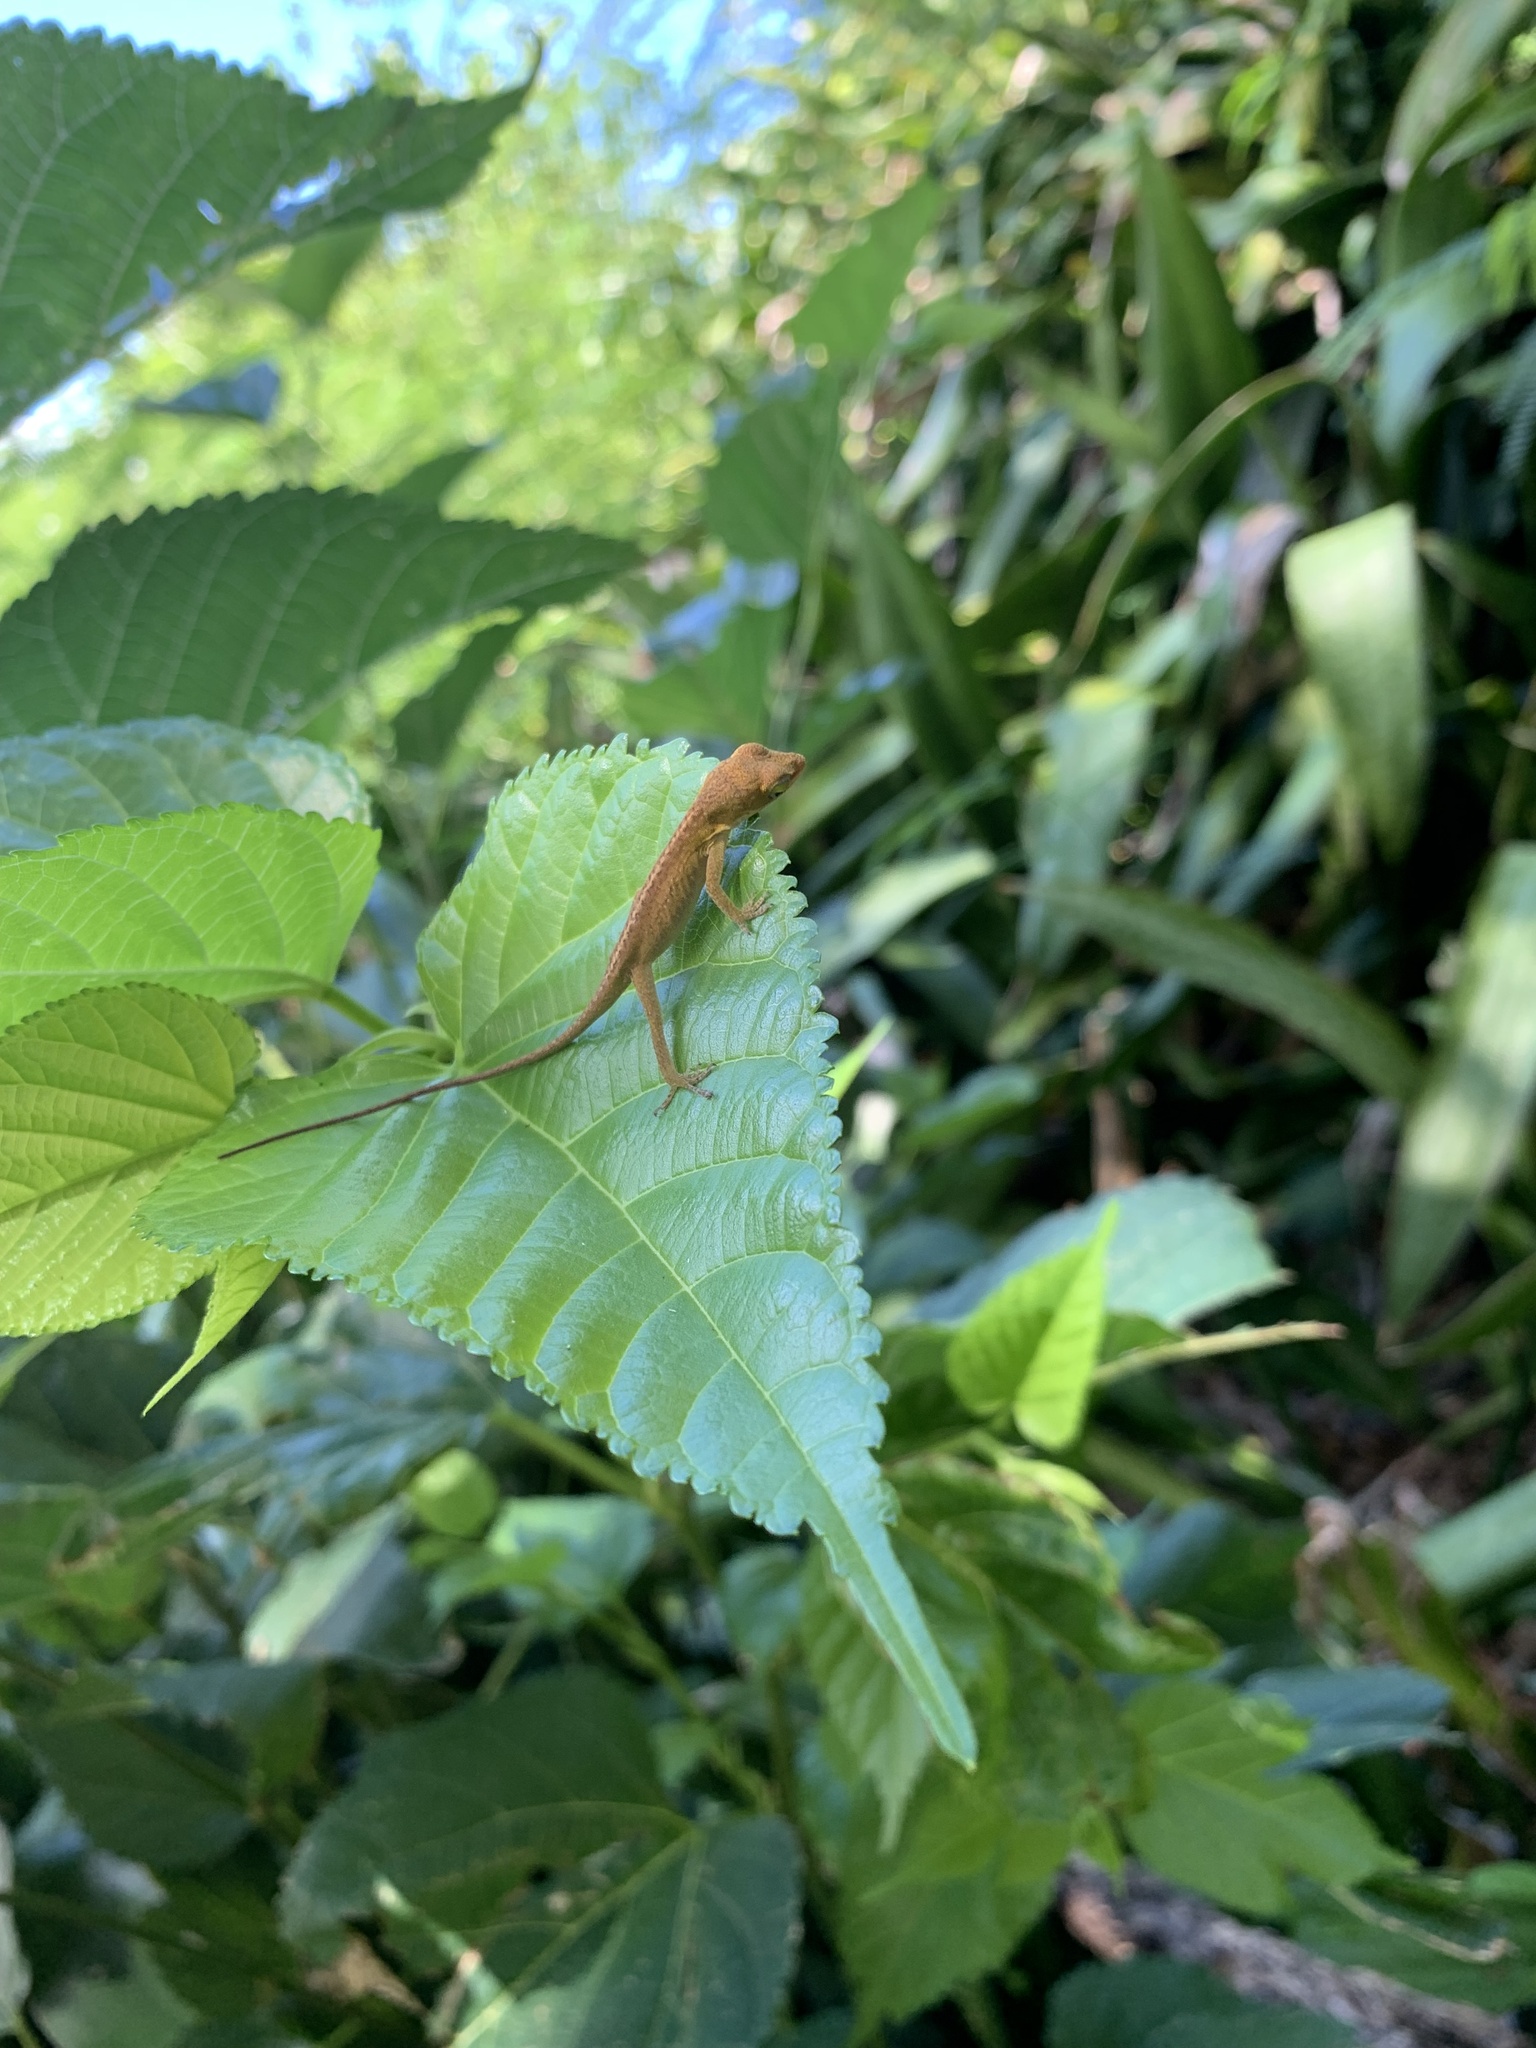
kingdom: Animalia
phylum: Chordata
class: Squamata
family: Dactyloidae
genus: Anolis
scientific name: Anolis carolinensis
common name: Green anole
